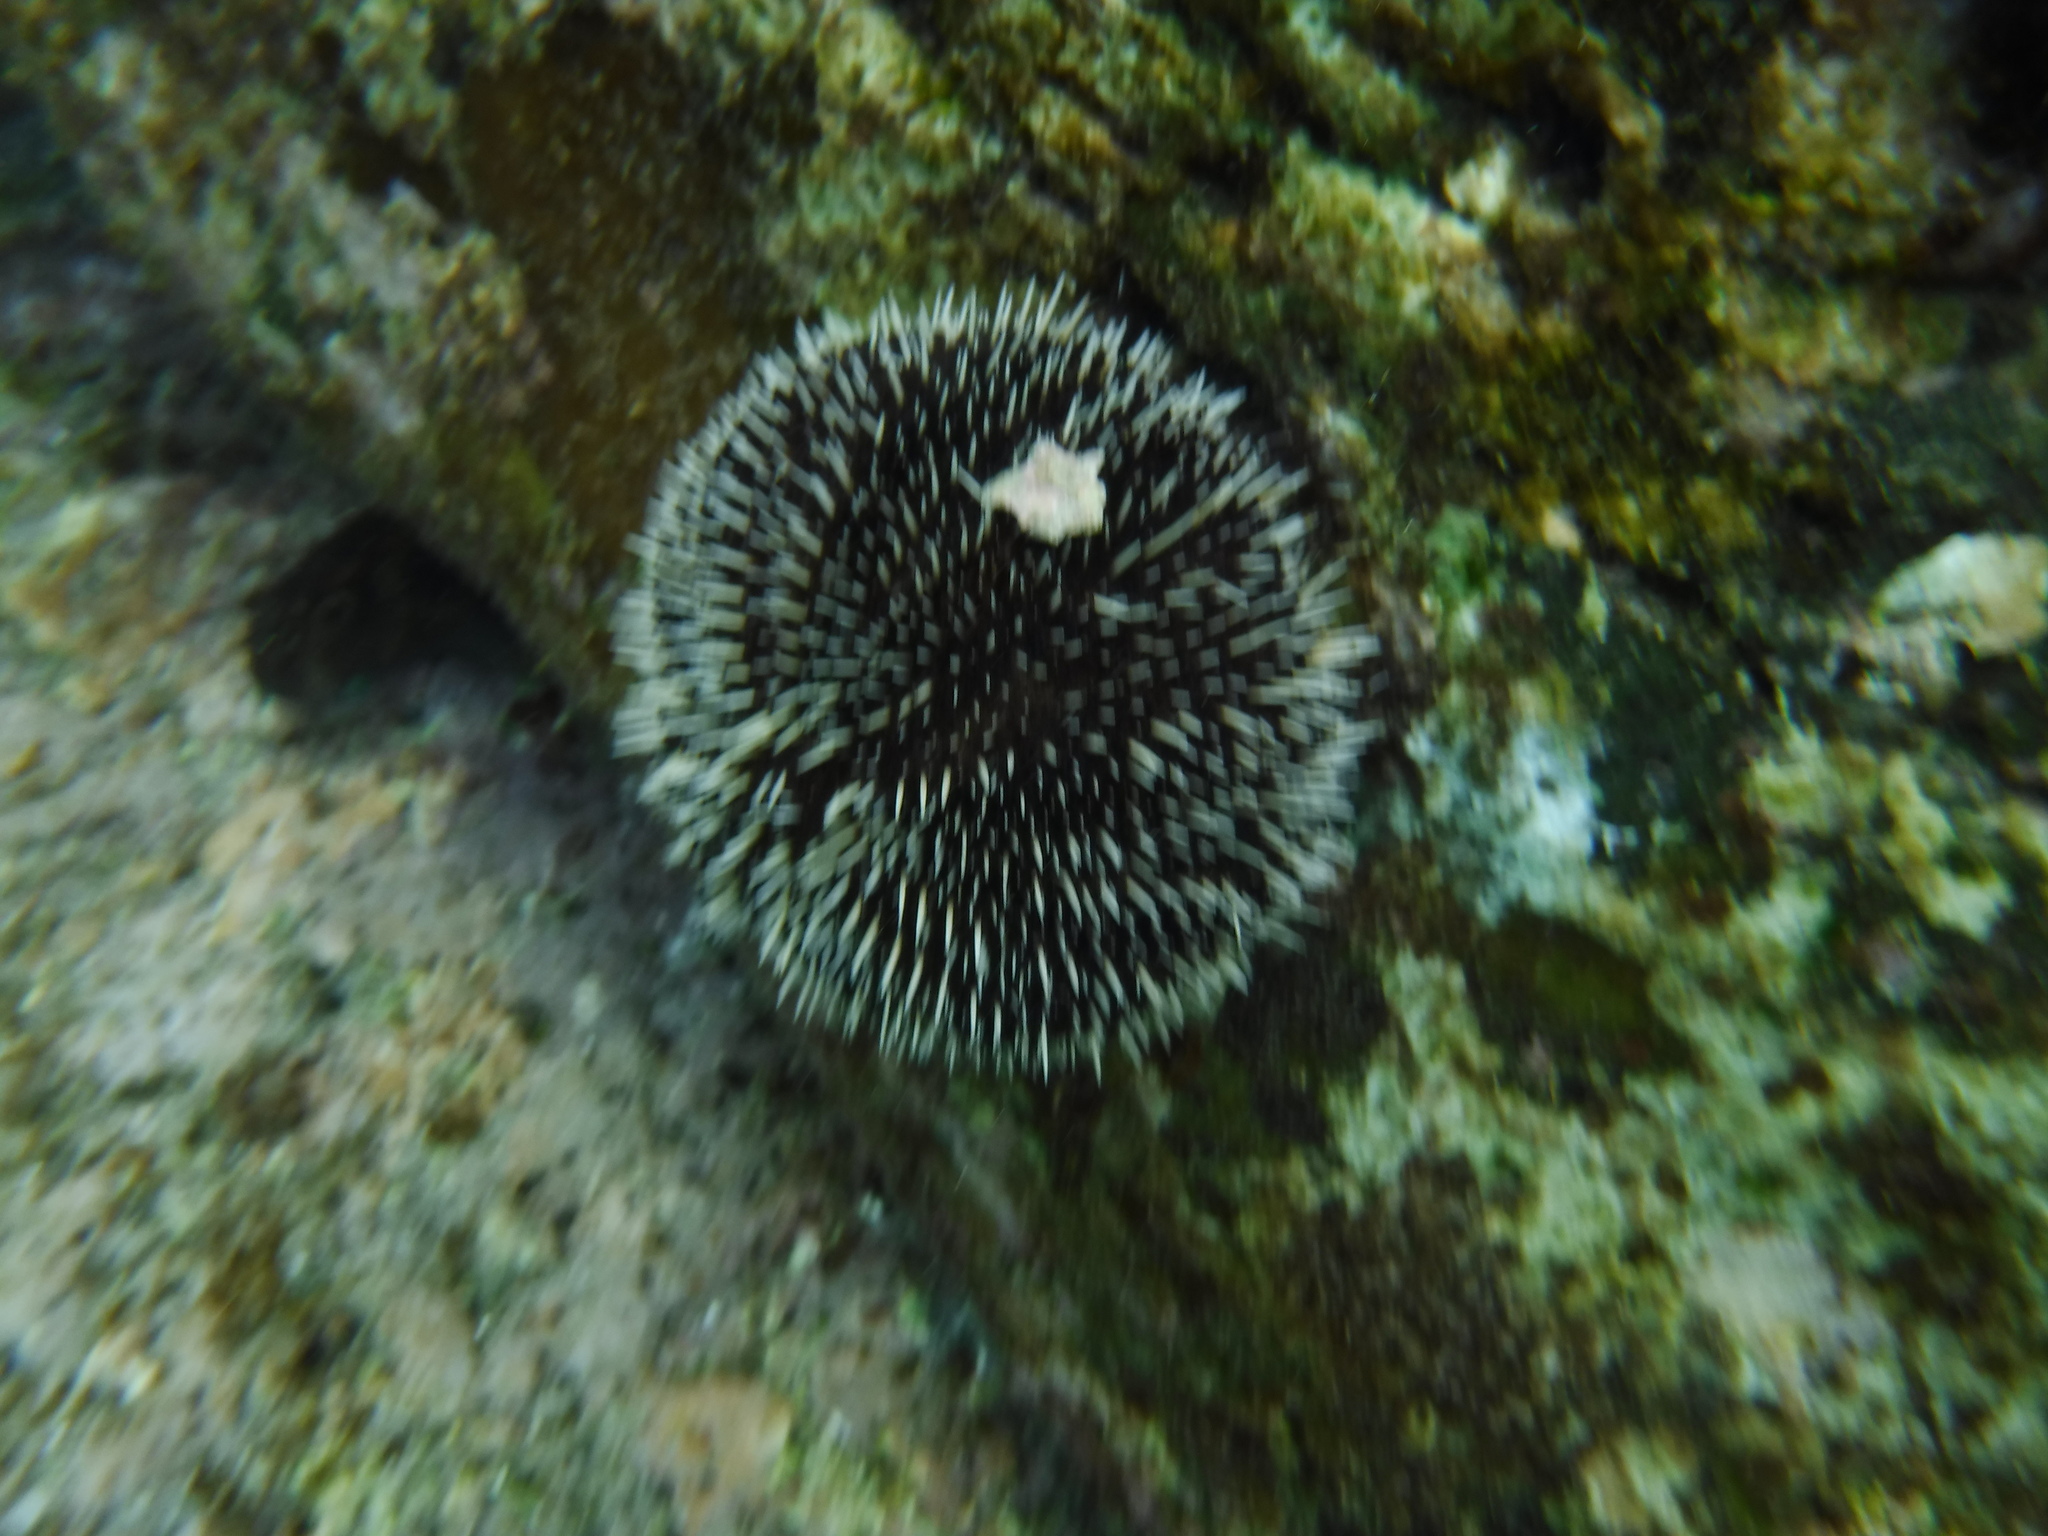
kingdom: Animalia
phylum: Echinodermata
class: Echinoidea
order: Camarodonta
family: Toxopneustidae
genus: Tripneustes
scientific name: Tripneustes depressus
